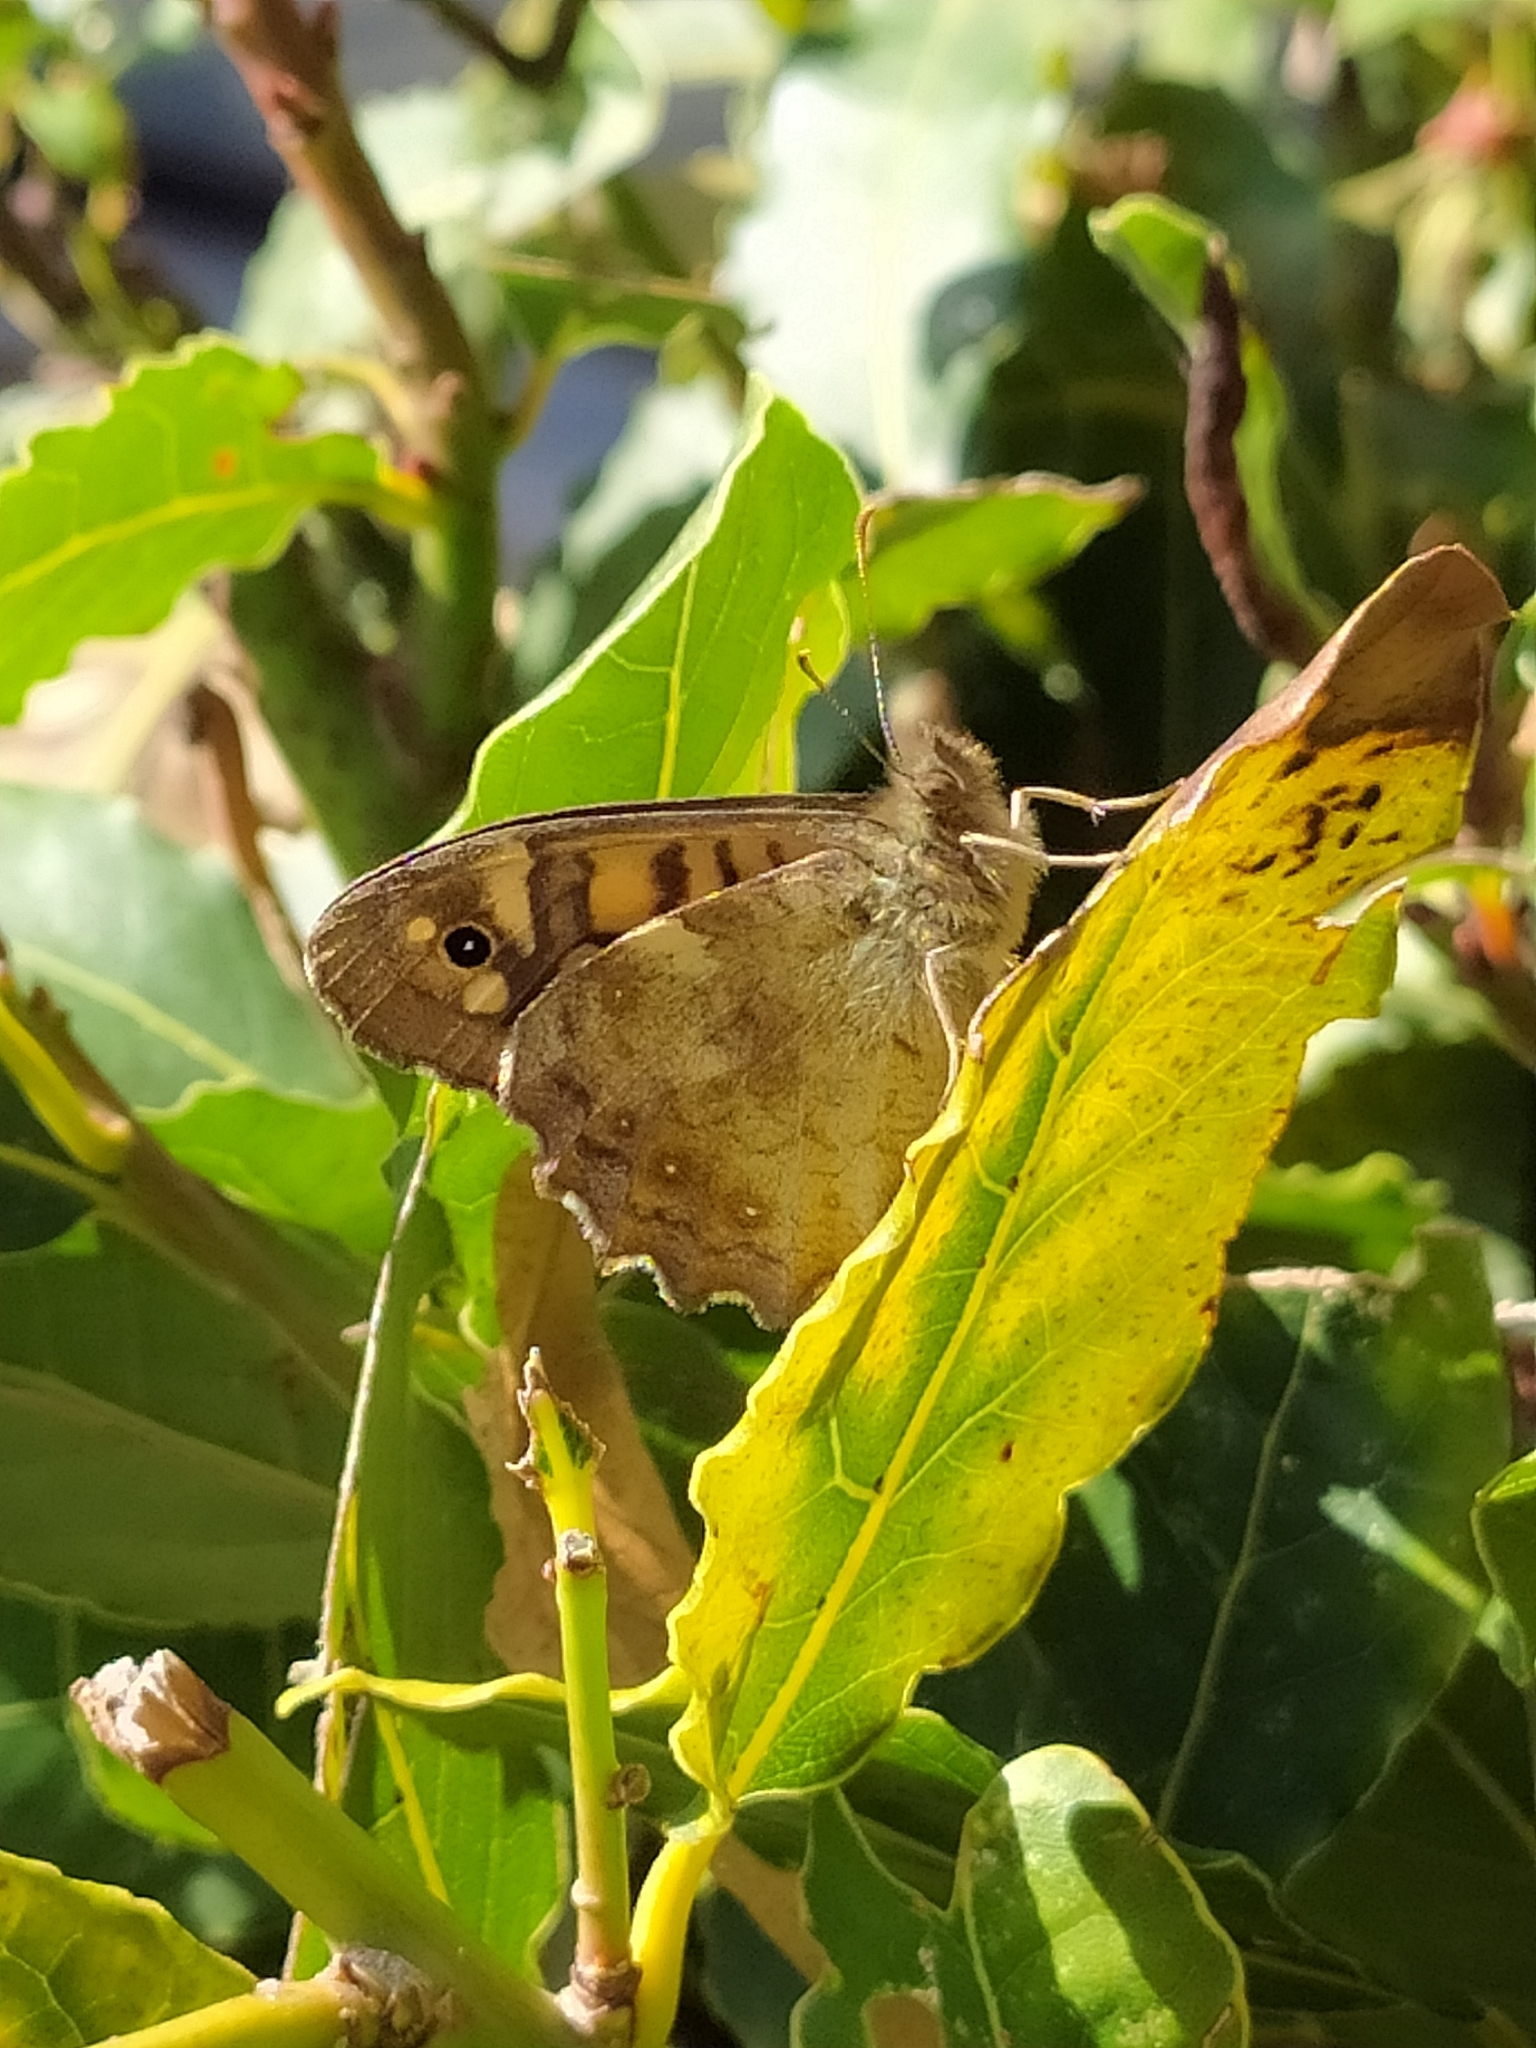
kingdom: Animalia
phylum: Arthropoda
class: Insecta
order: Lepidoptera
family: Nymphalidae
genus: Pararge
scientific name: Pararge aegeria
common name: Speckled wood
